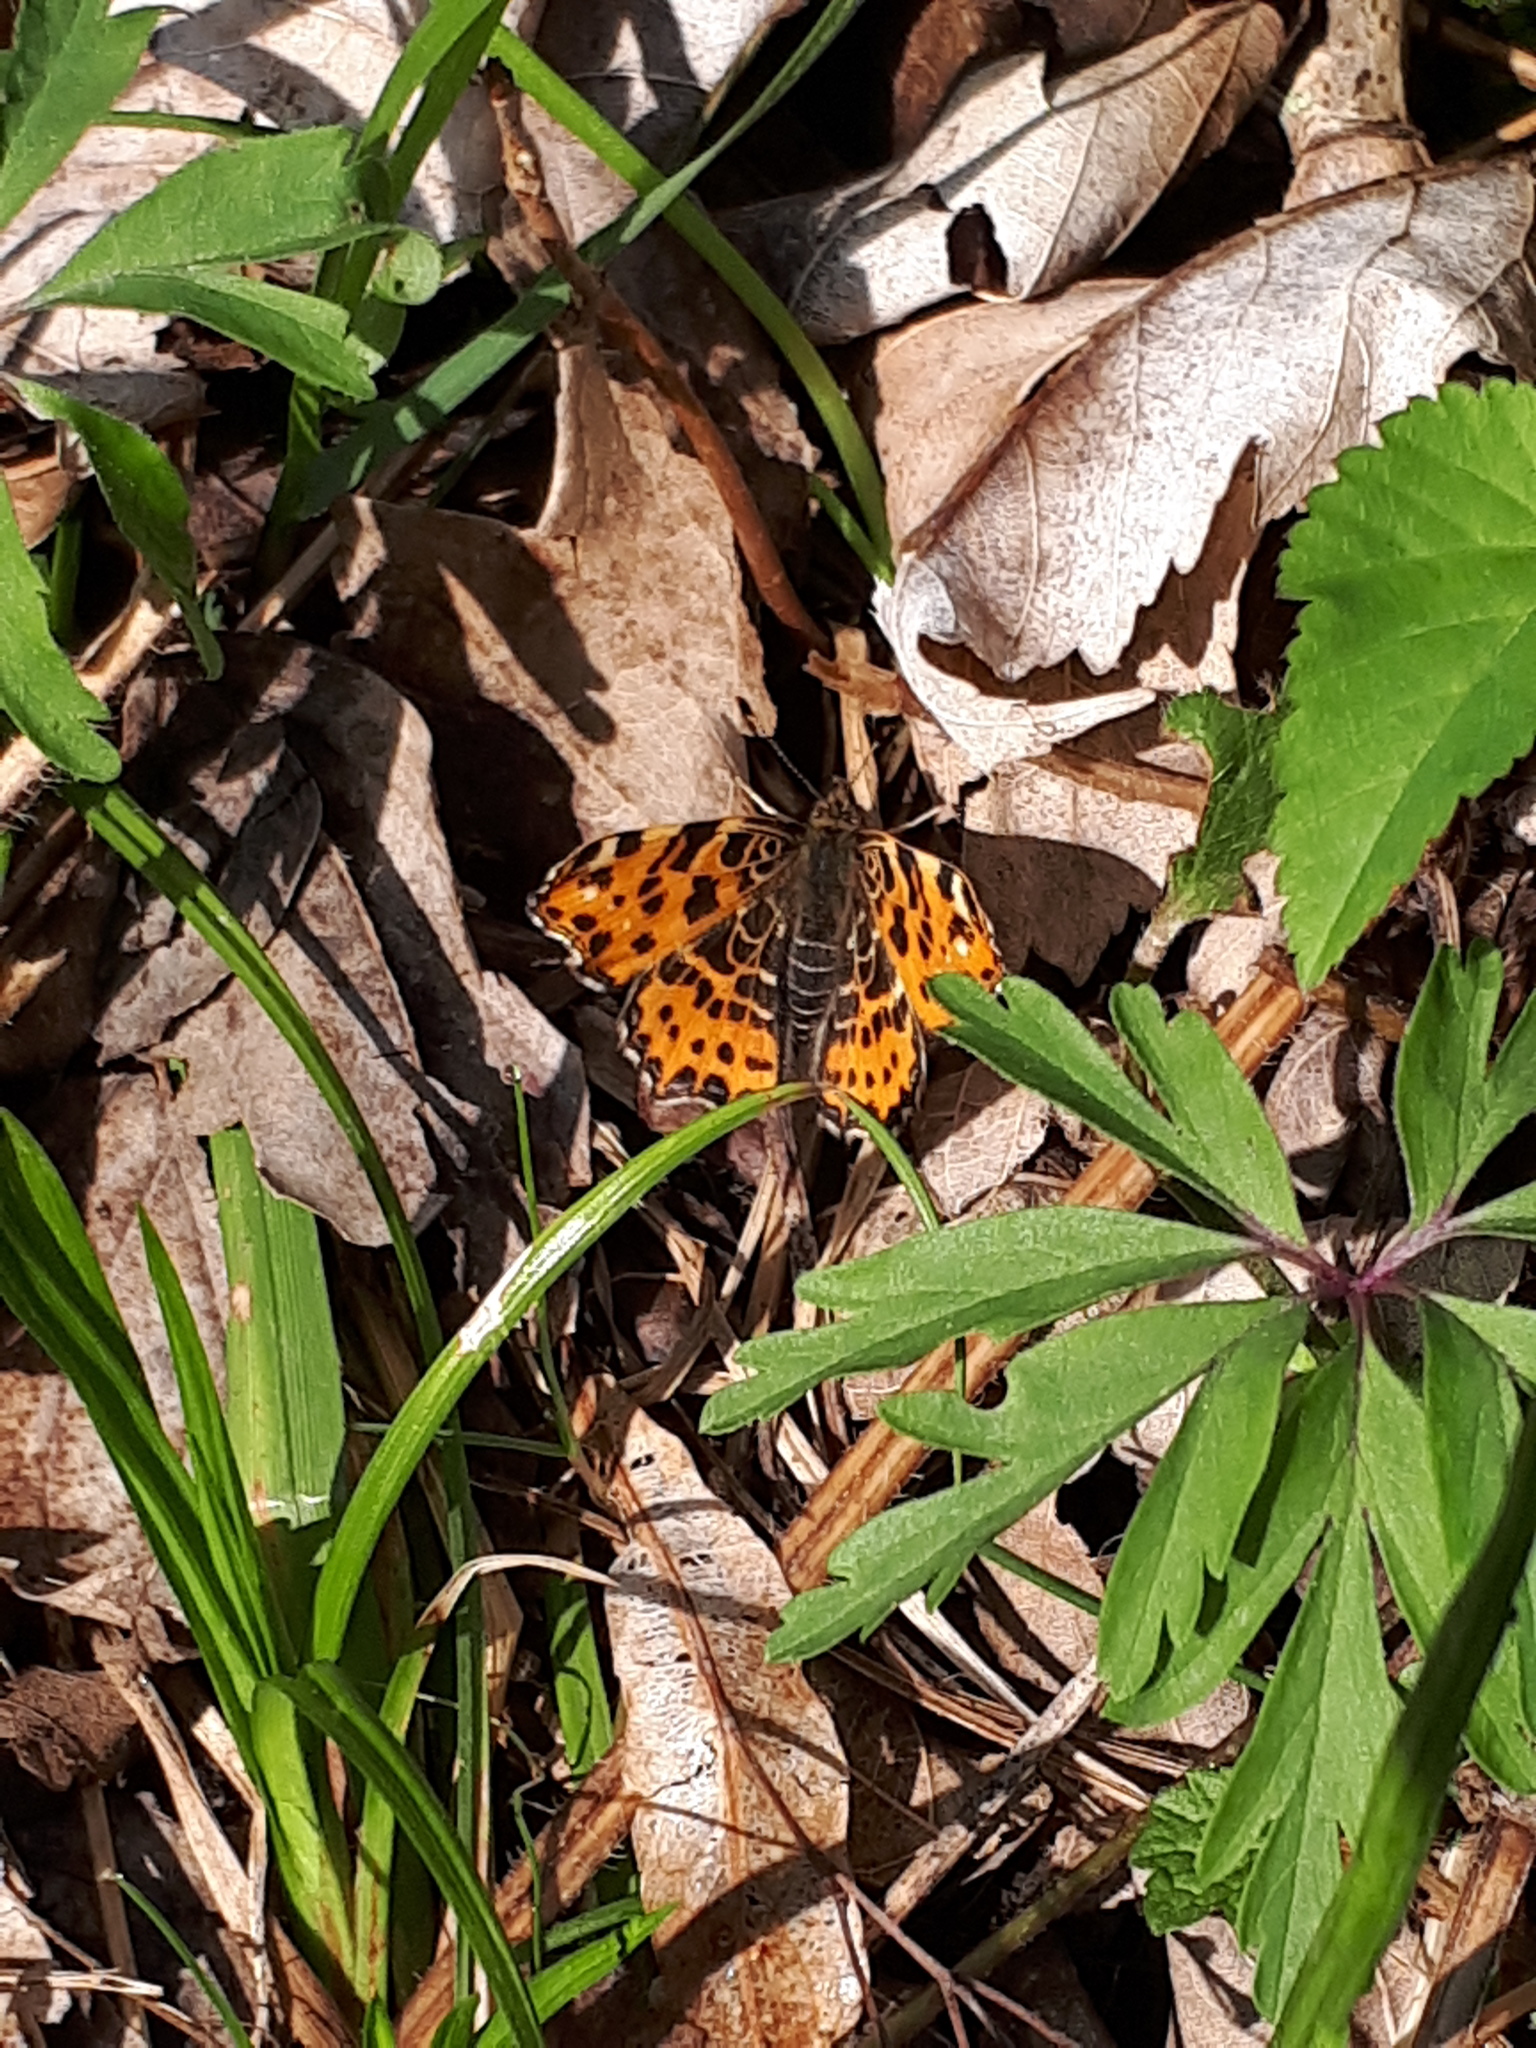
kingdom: Animalia
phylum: Arthropoda
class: Insecta
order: Lepidoptera
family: Nymphalidae
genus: Araschnia
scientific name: Araschnia levana
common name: Map butterfly
